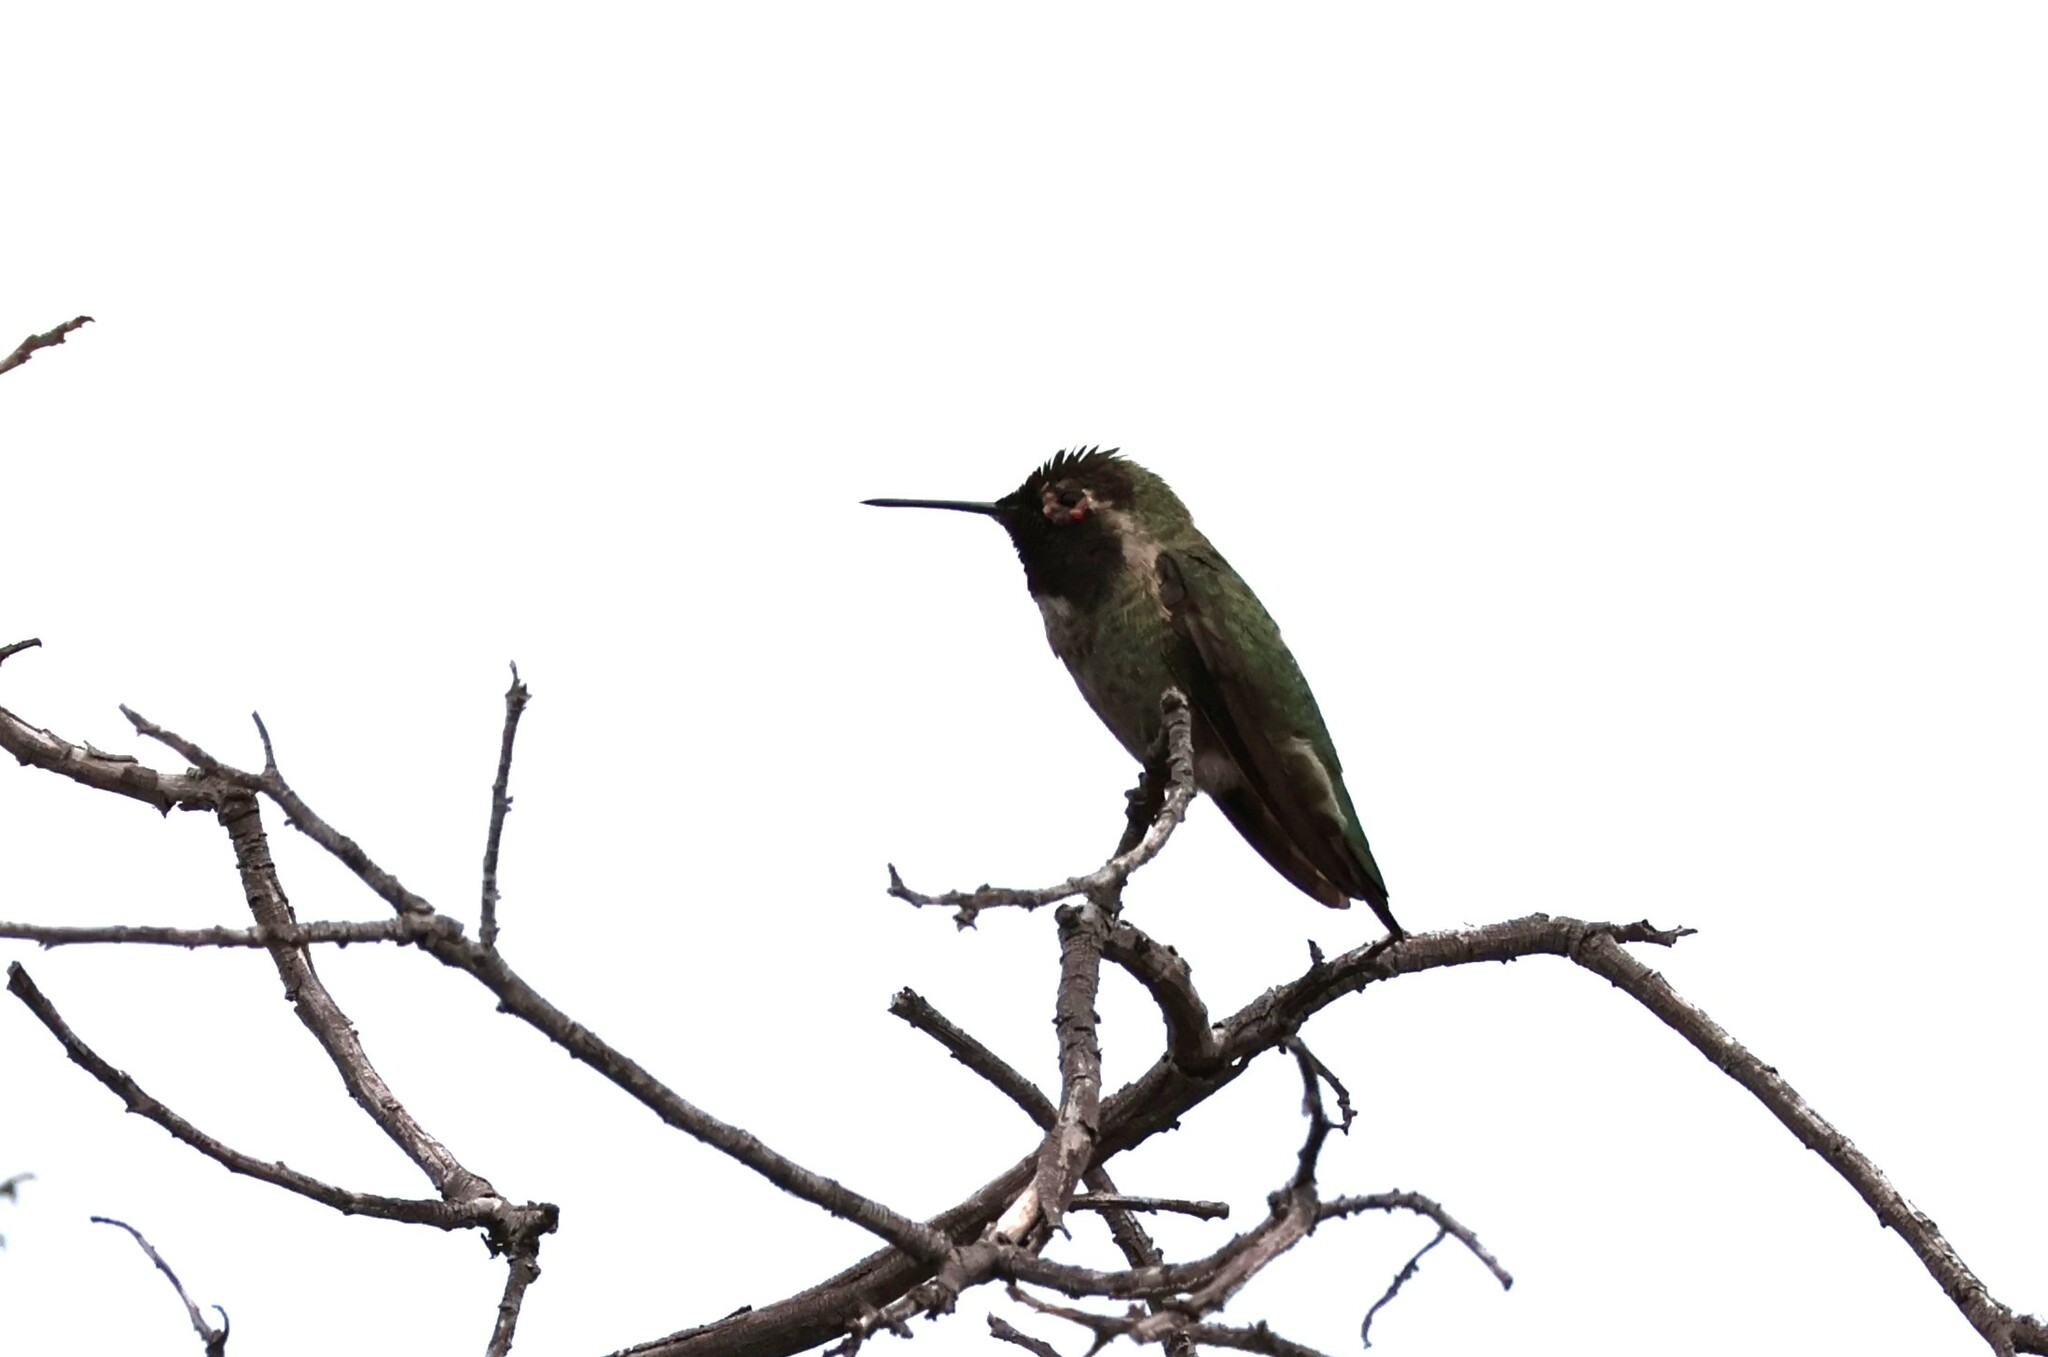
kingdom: Animalia
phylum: Chordata
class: Aves
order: Apodiformes
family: Trochilidae
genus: Calypte
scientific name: Calypte anna
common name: Anna's hummingbird
